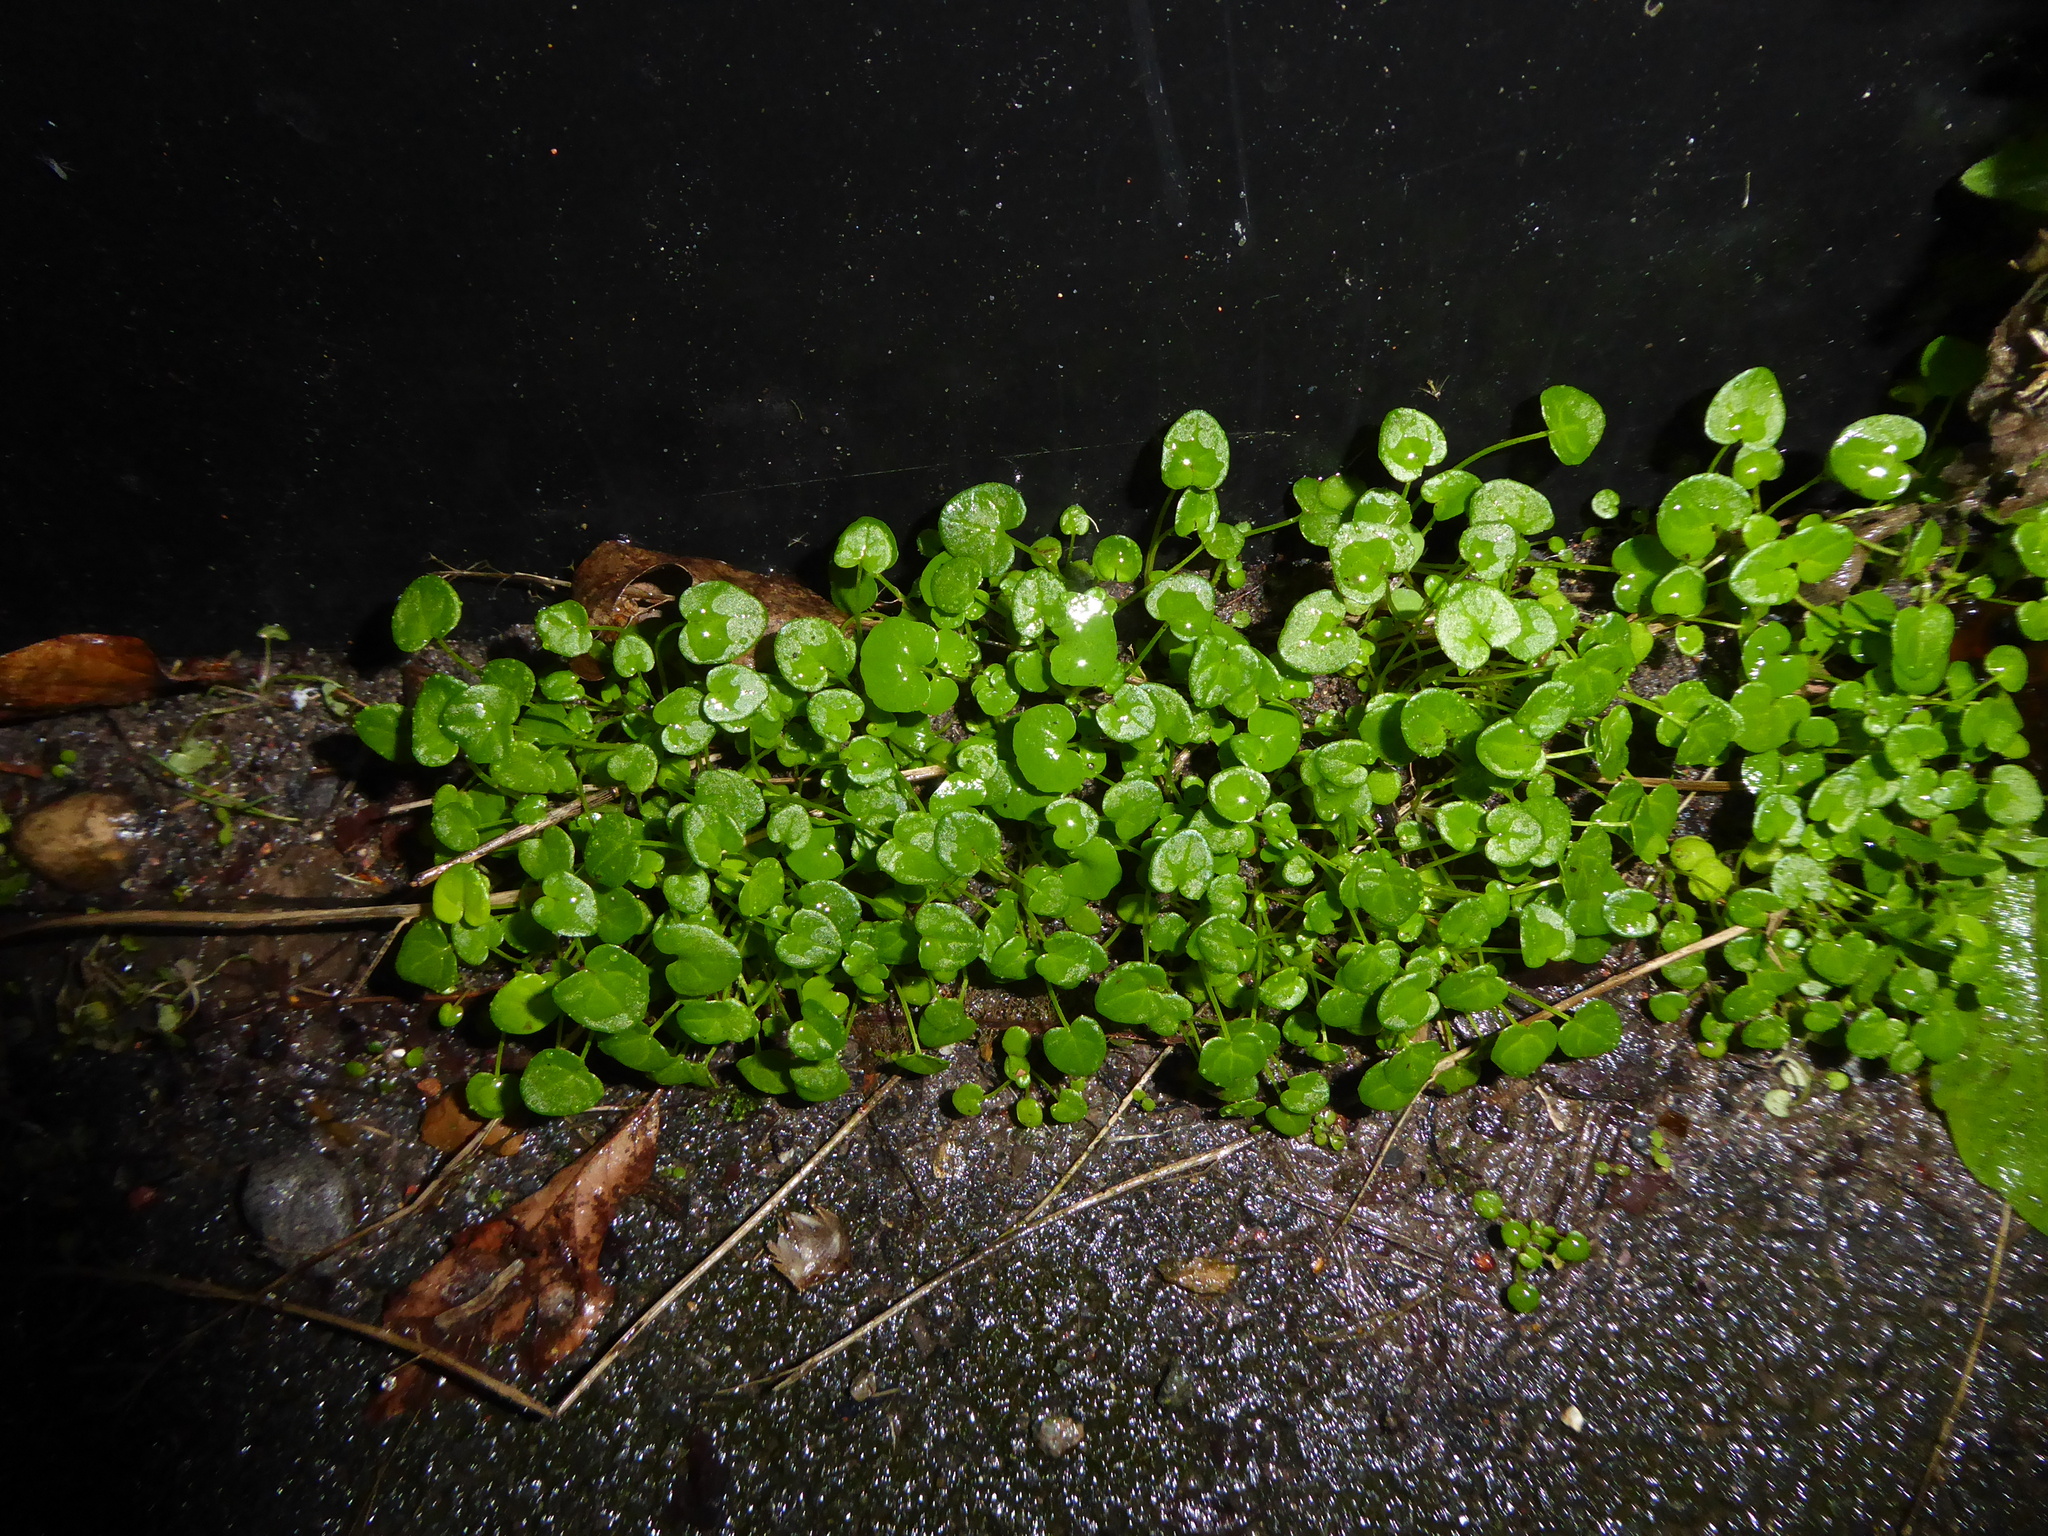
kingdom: Plantae
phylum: Tracheophyta
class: Magnoliopsida
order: Brassicales
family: Brassicaceae
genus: Cochlearia
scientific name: Cochlearia danica
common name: Early scurvygrass
